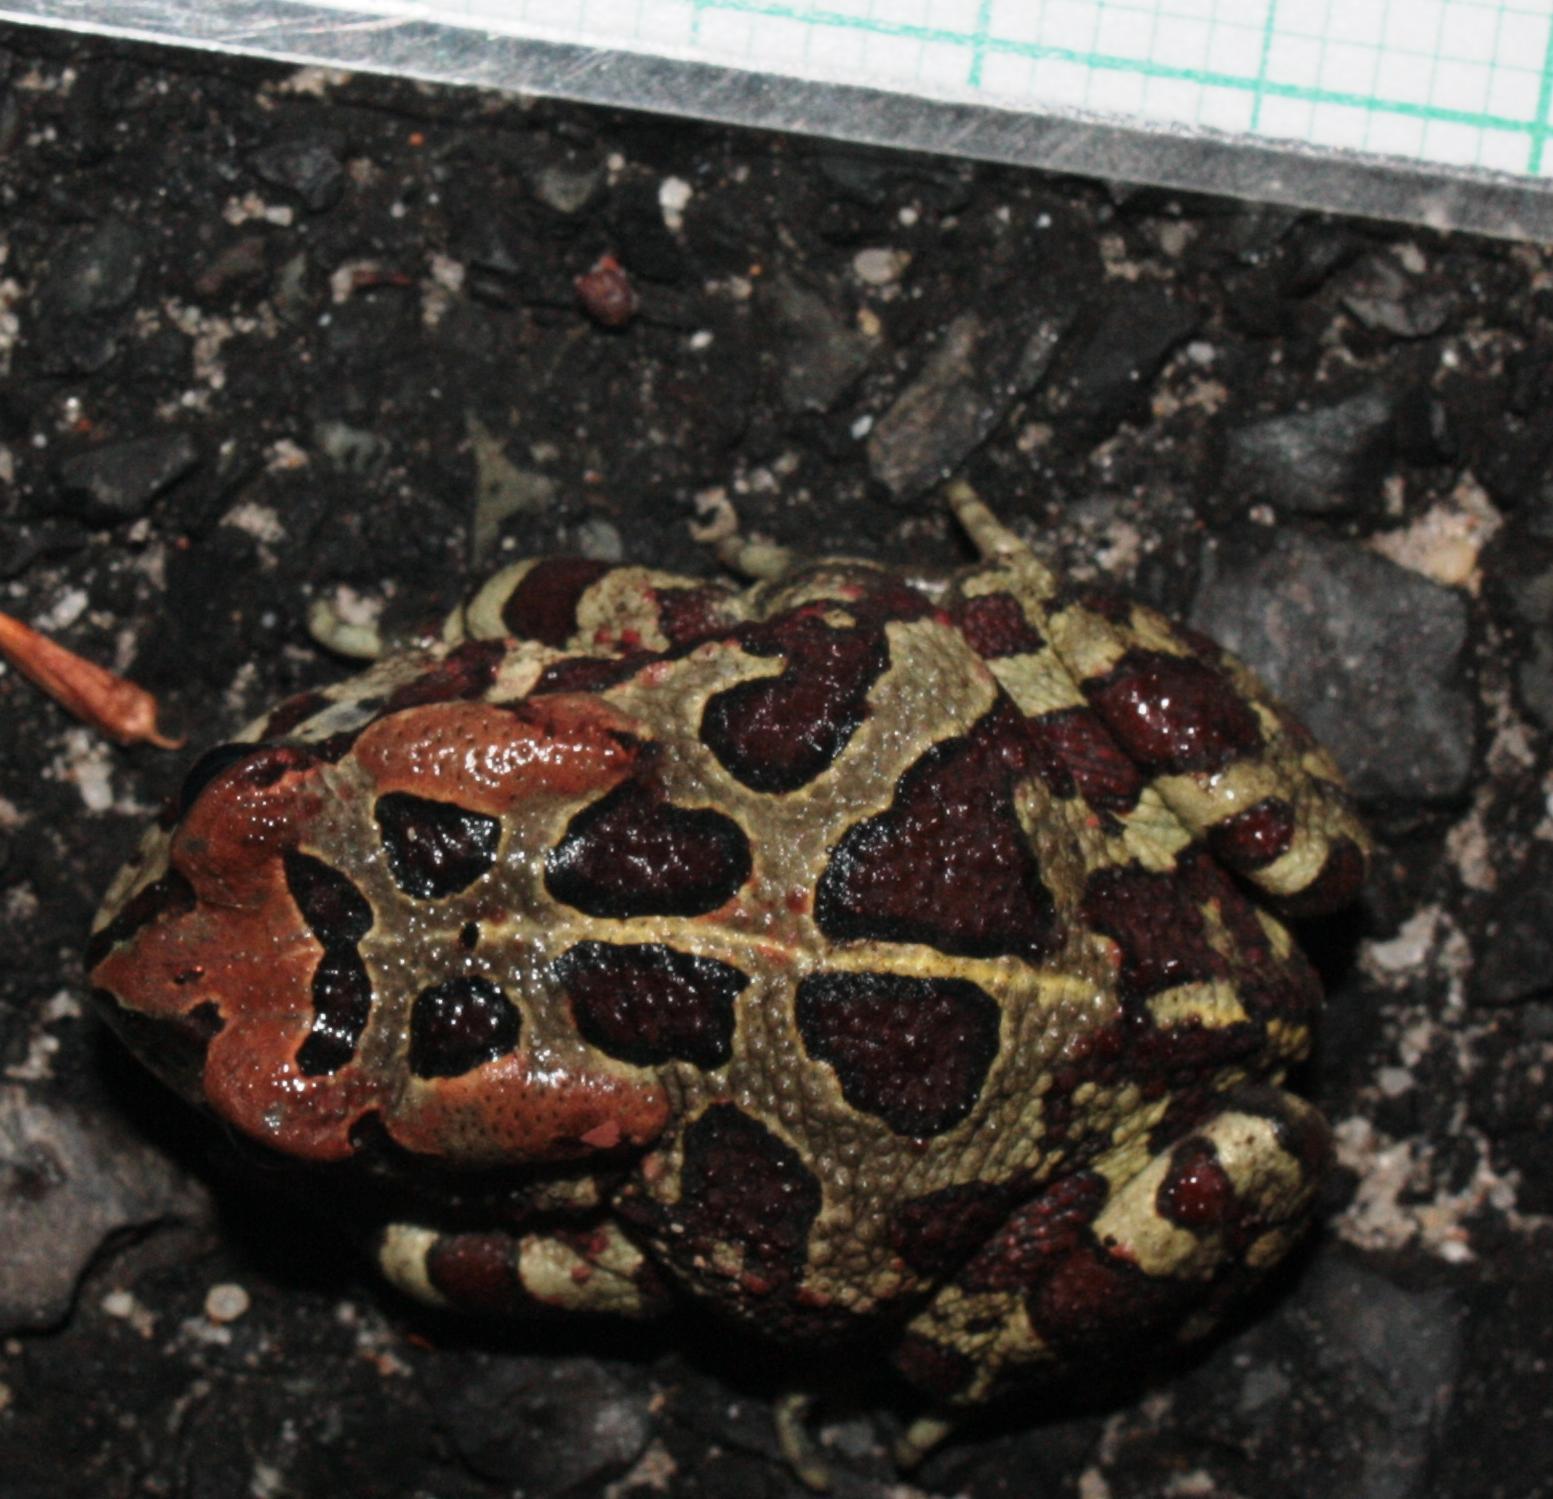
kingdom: Animalia
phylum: Chordata
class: Amphibia
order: Anura
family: Bufonidae
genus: Sclerophrys
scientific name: Sclerophrys pantherina
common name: Panther toad
